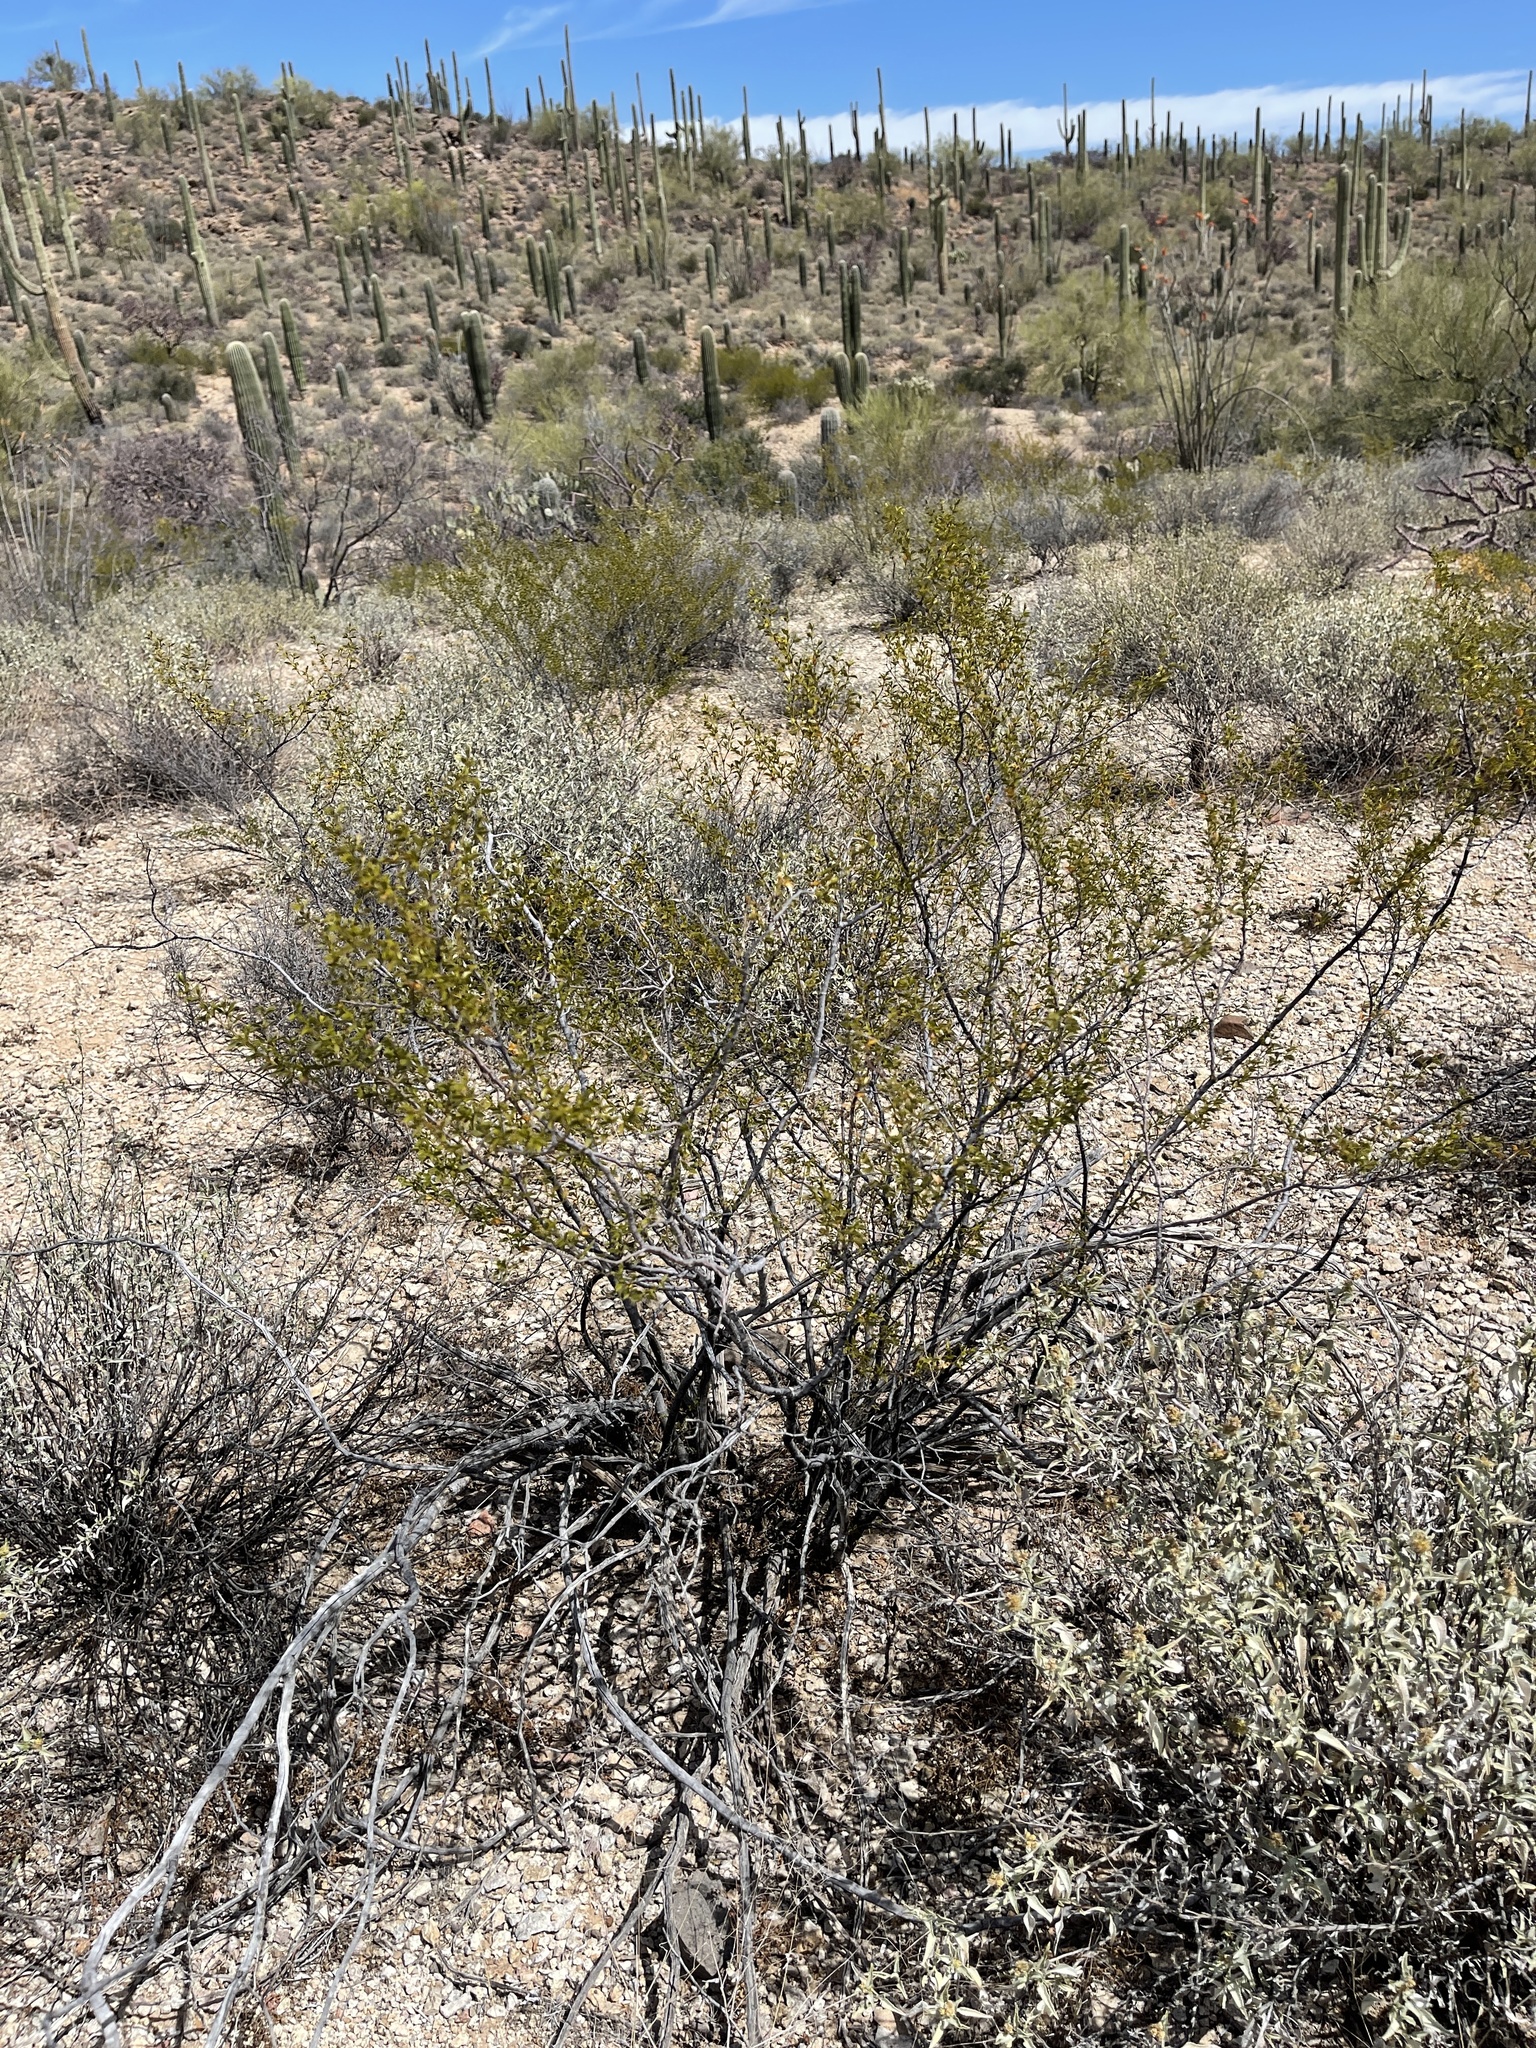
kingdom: Plantae
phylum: Tracheophyta
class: Magnoliopsida
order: Zygophyllales
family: Zygophyllaceae
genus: Larrea
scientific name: Larrea tridentata
